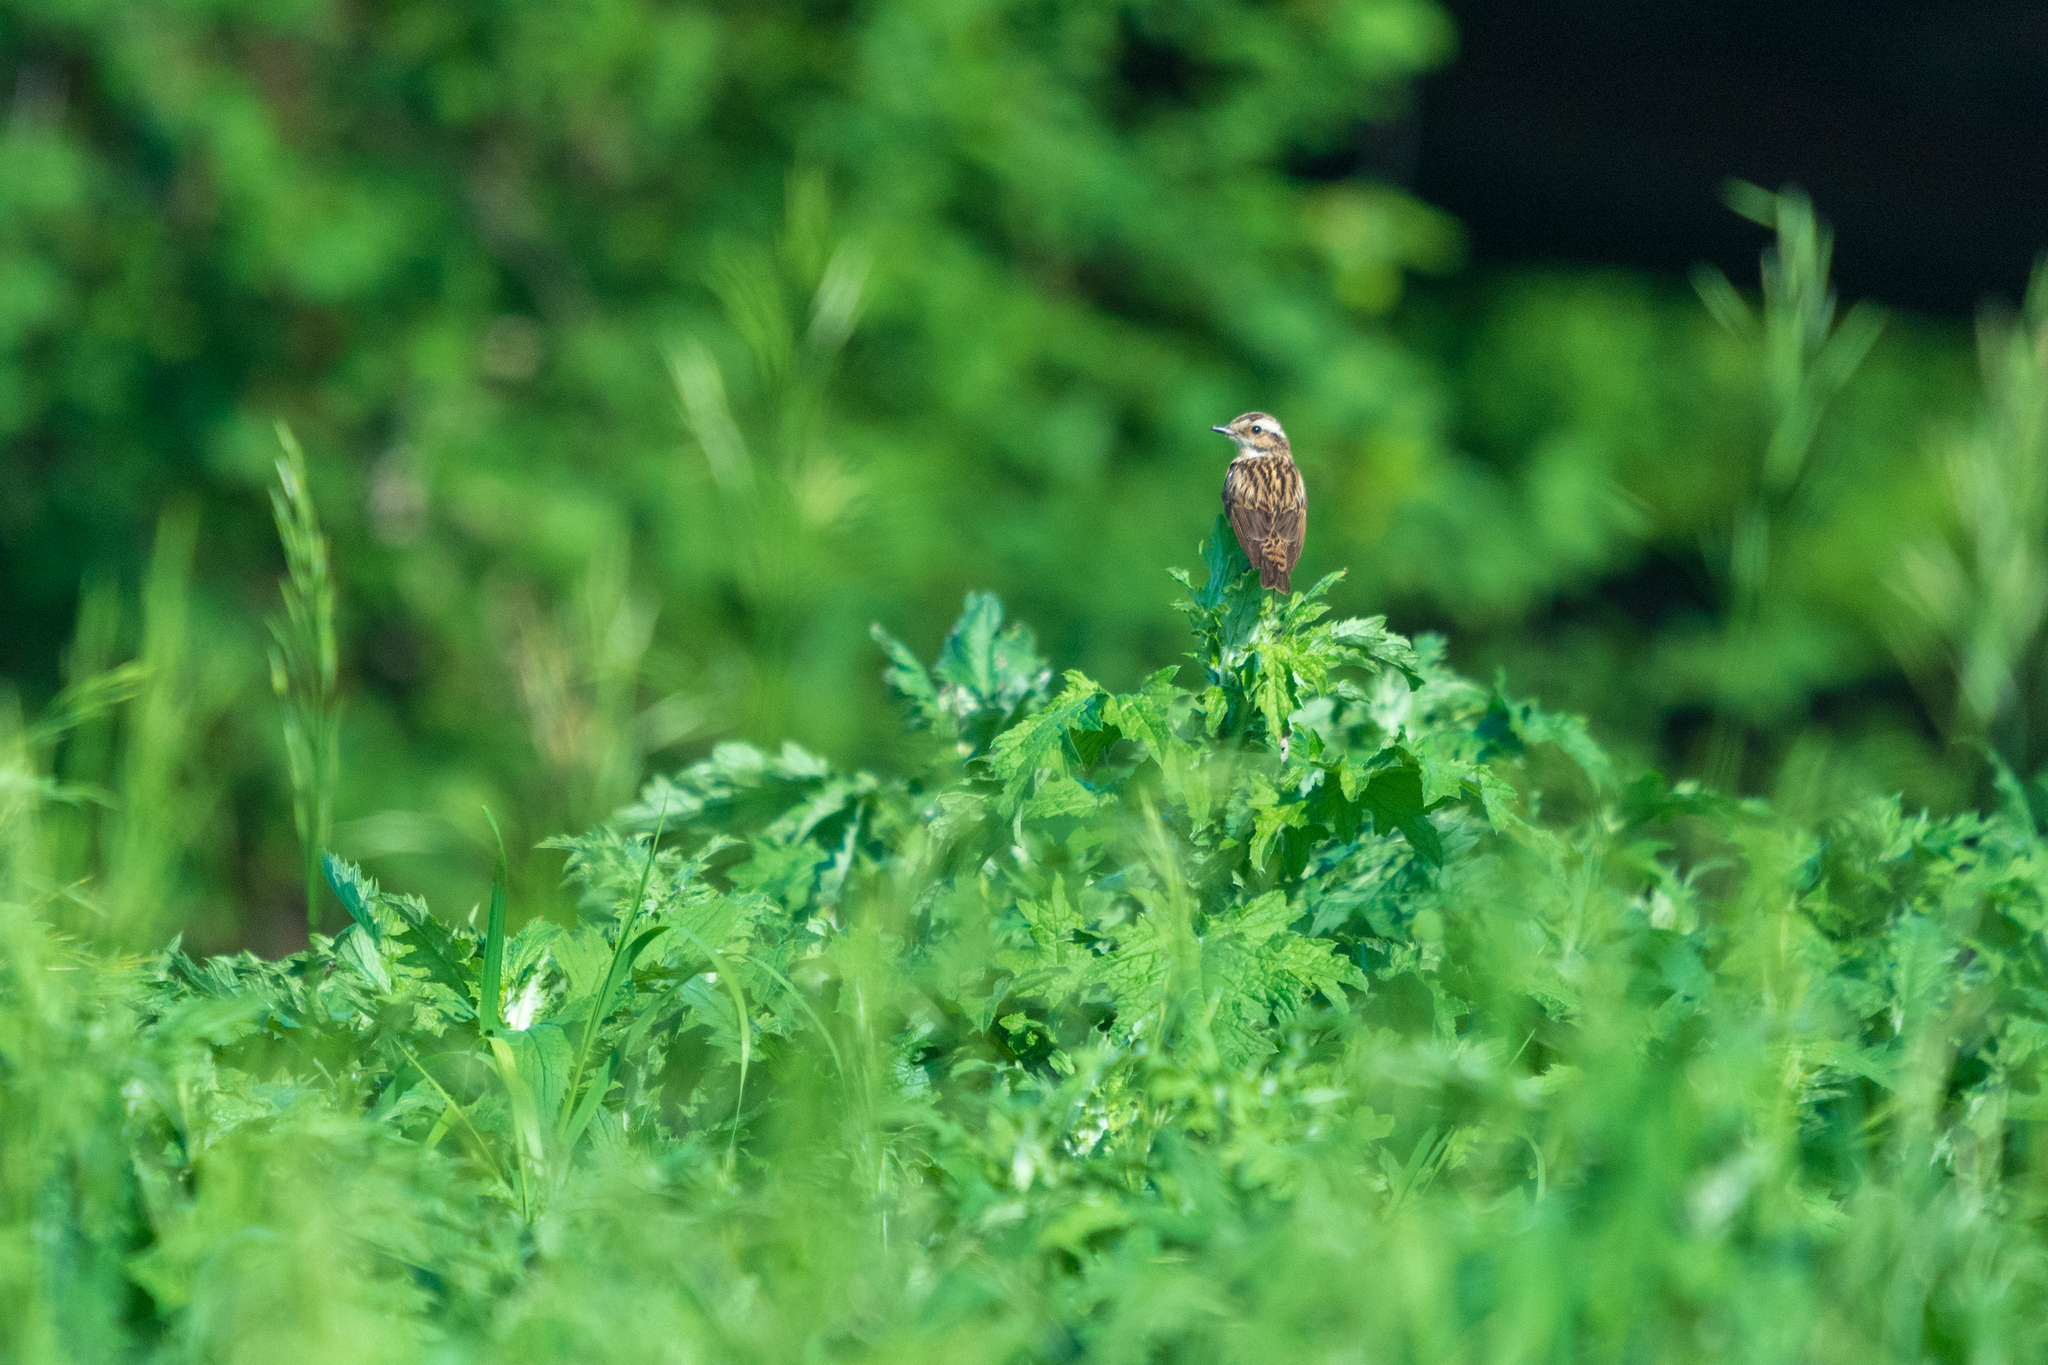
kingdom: Animalia
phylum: Chordata
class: Aves
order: Passeriformes
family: Muscicapidae
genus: Saxicola
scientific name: Saxicola rubetra
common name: Whinchat
